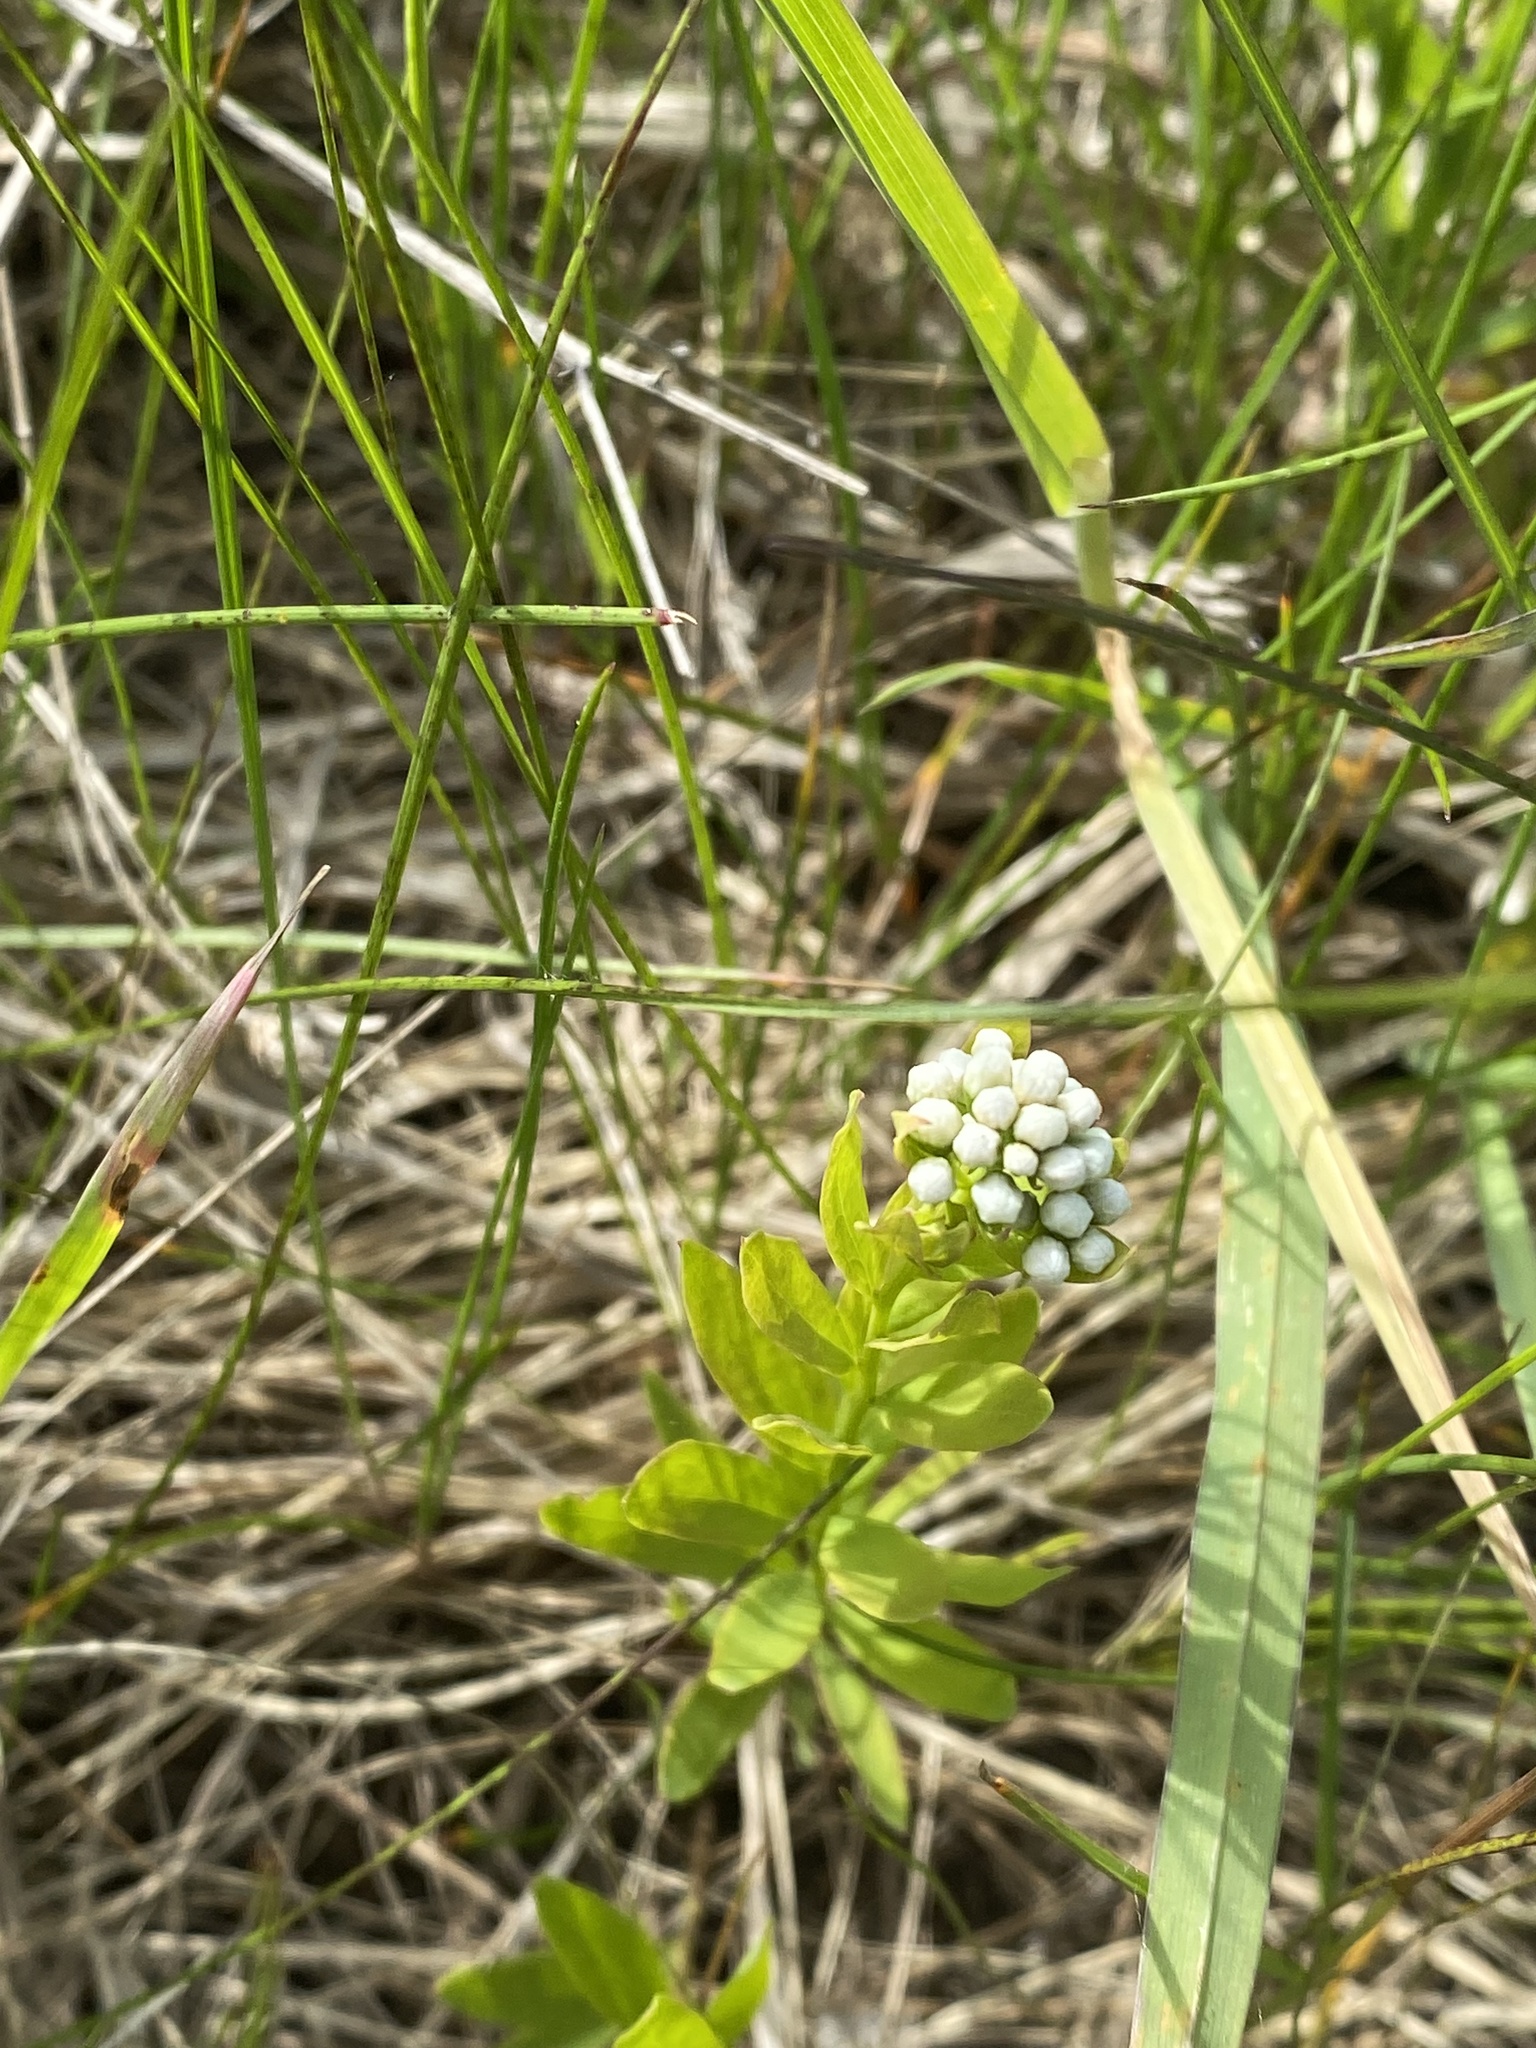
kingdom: Plantae
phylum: Tracheophyta
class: Magnoliopsida
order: Santalales
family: Comandraceae
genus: Comandra
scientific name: Comandra umbellata
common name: Bastard toadflax
